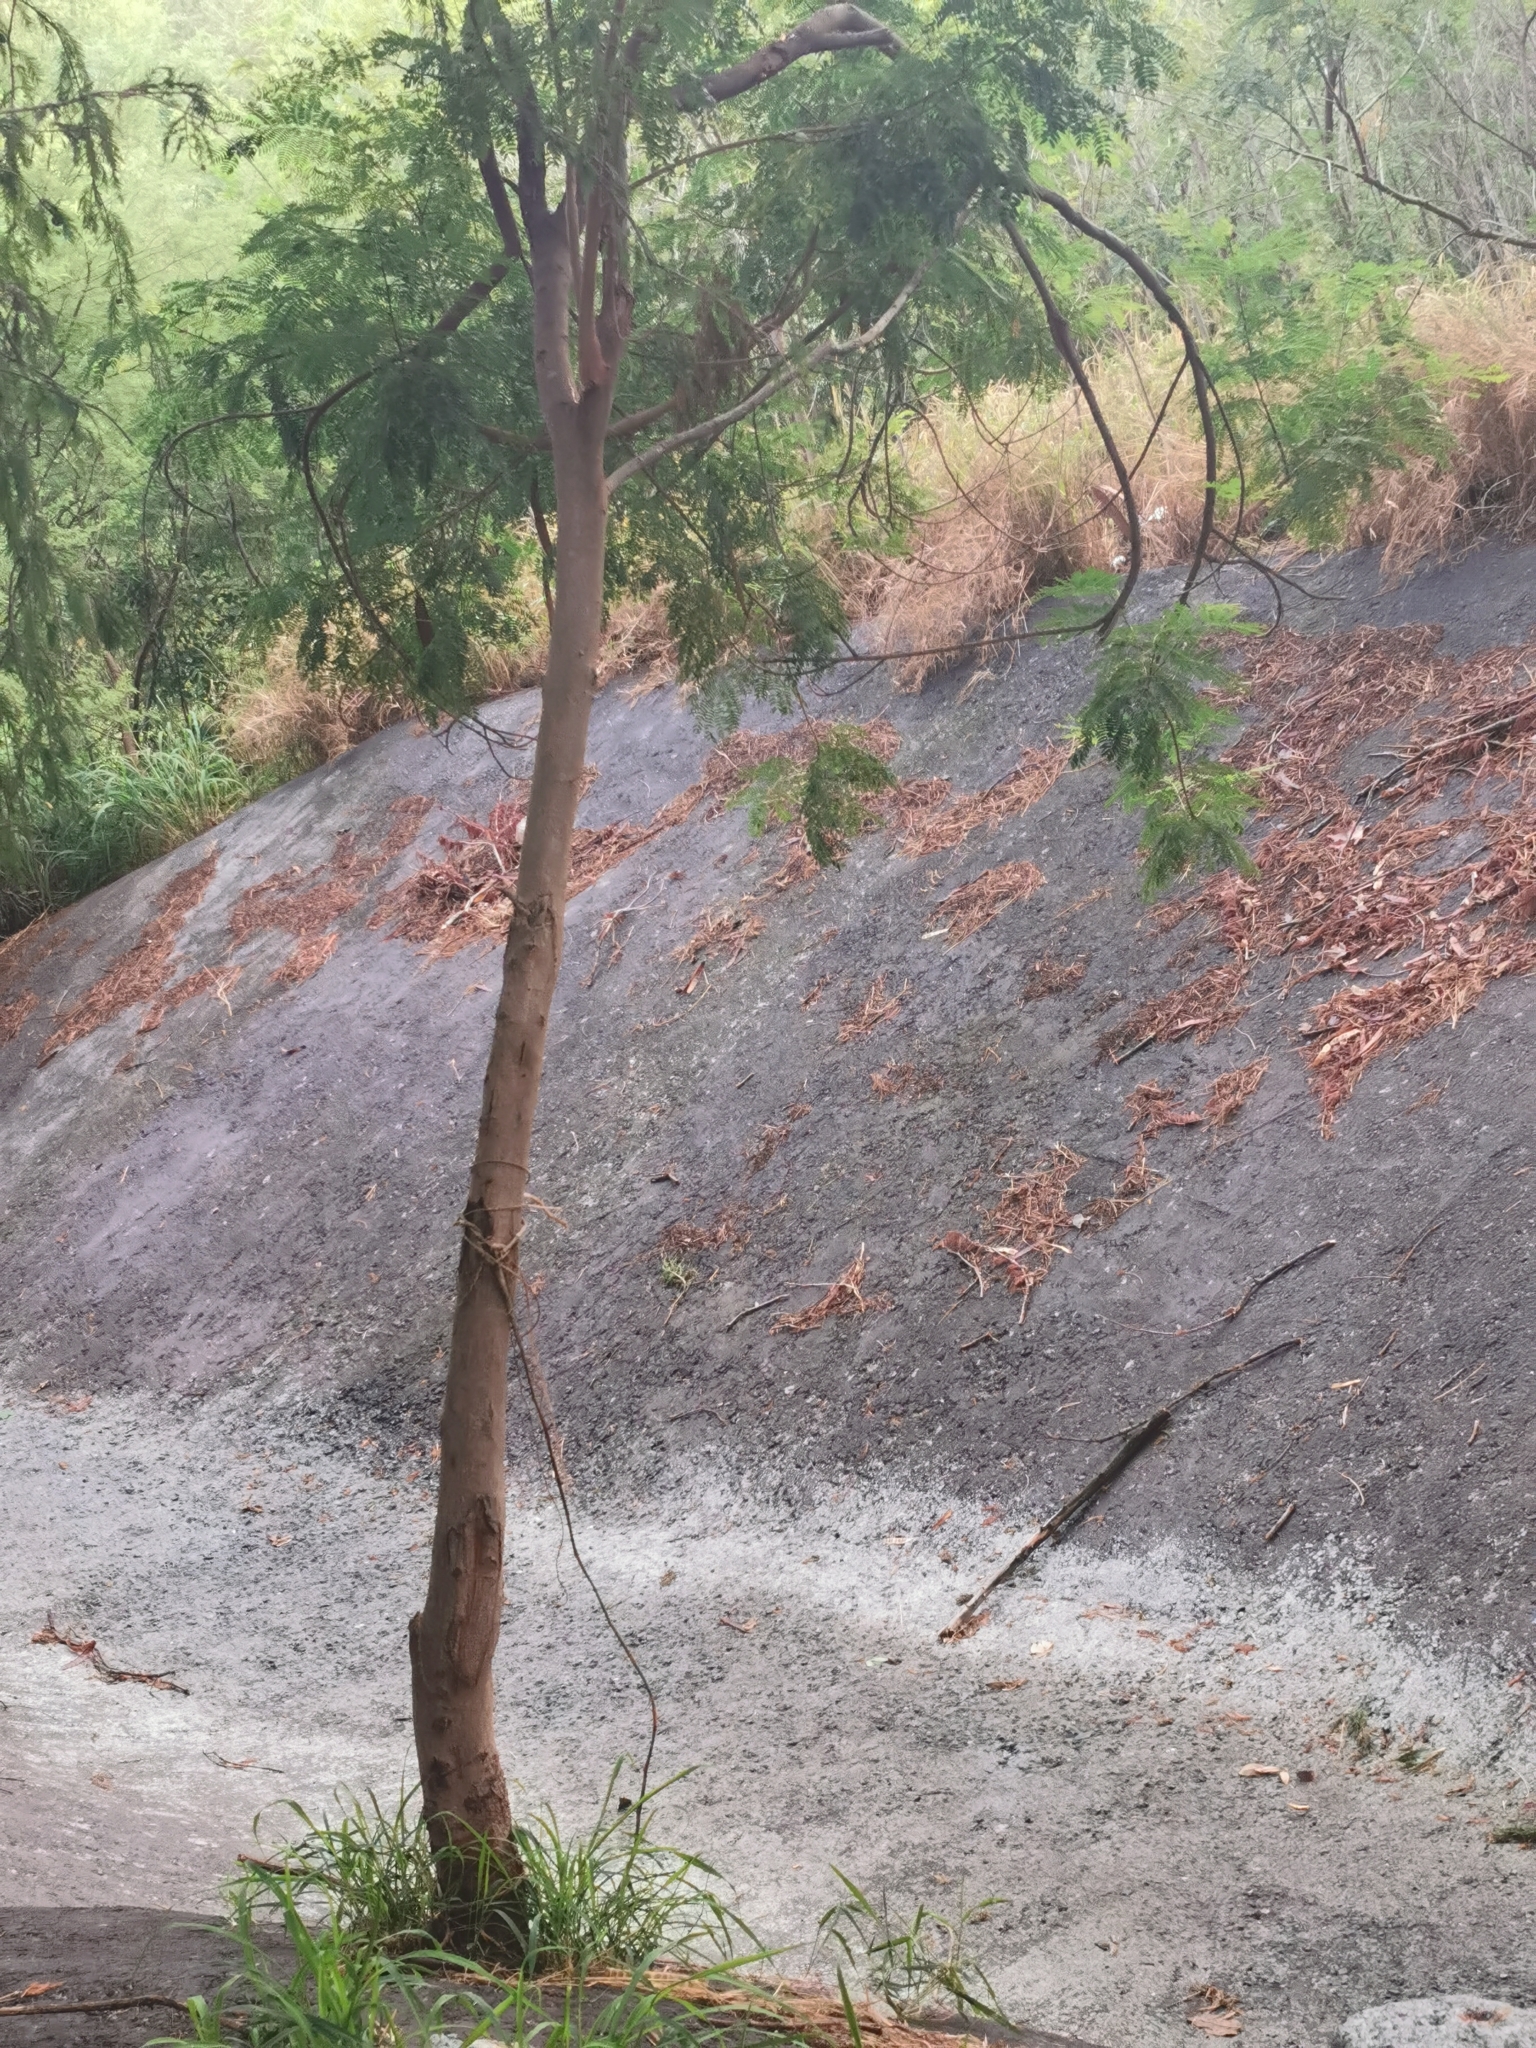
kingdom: Plantae
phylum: Tracheophyta
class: Magnoliopsida
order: Fabales
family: Fabaceae
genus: Leucaena
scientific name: Leucaena leucocephala
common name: White leadtree
